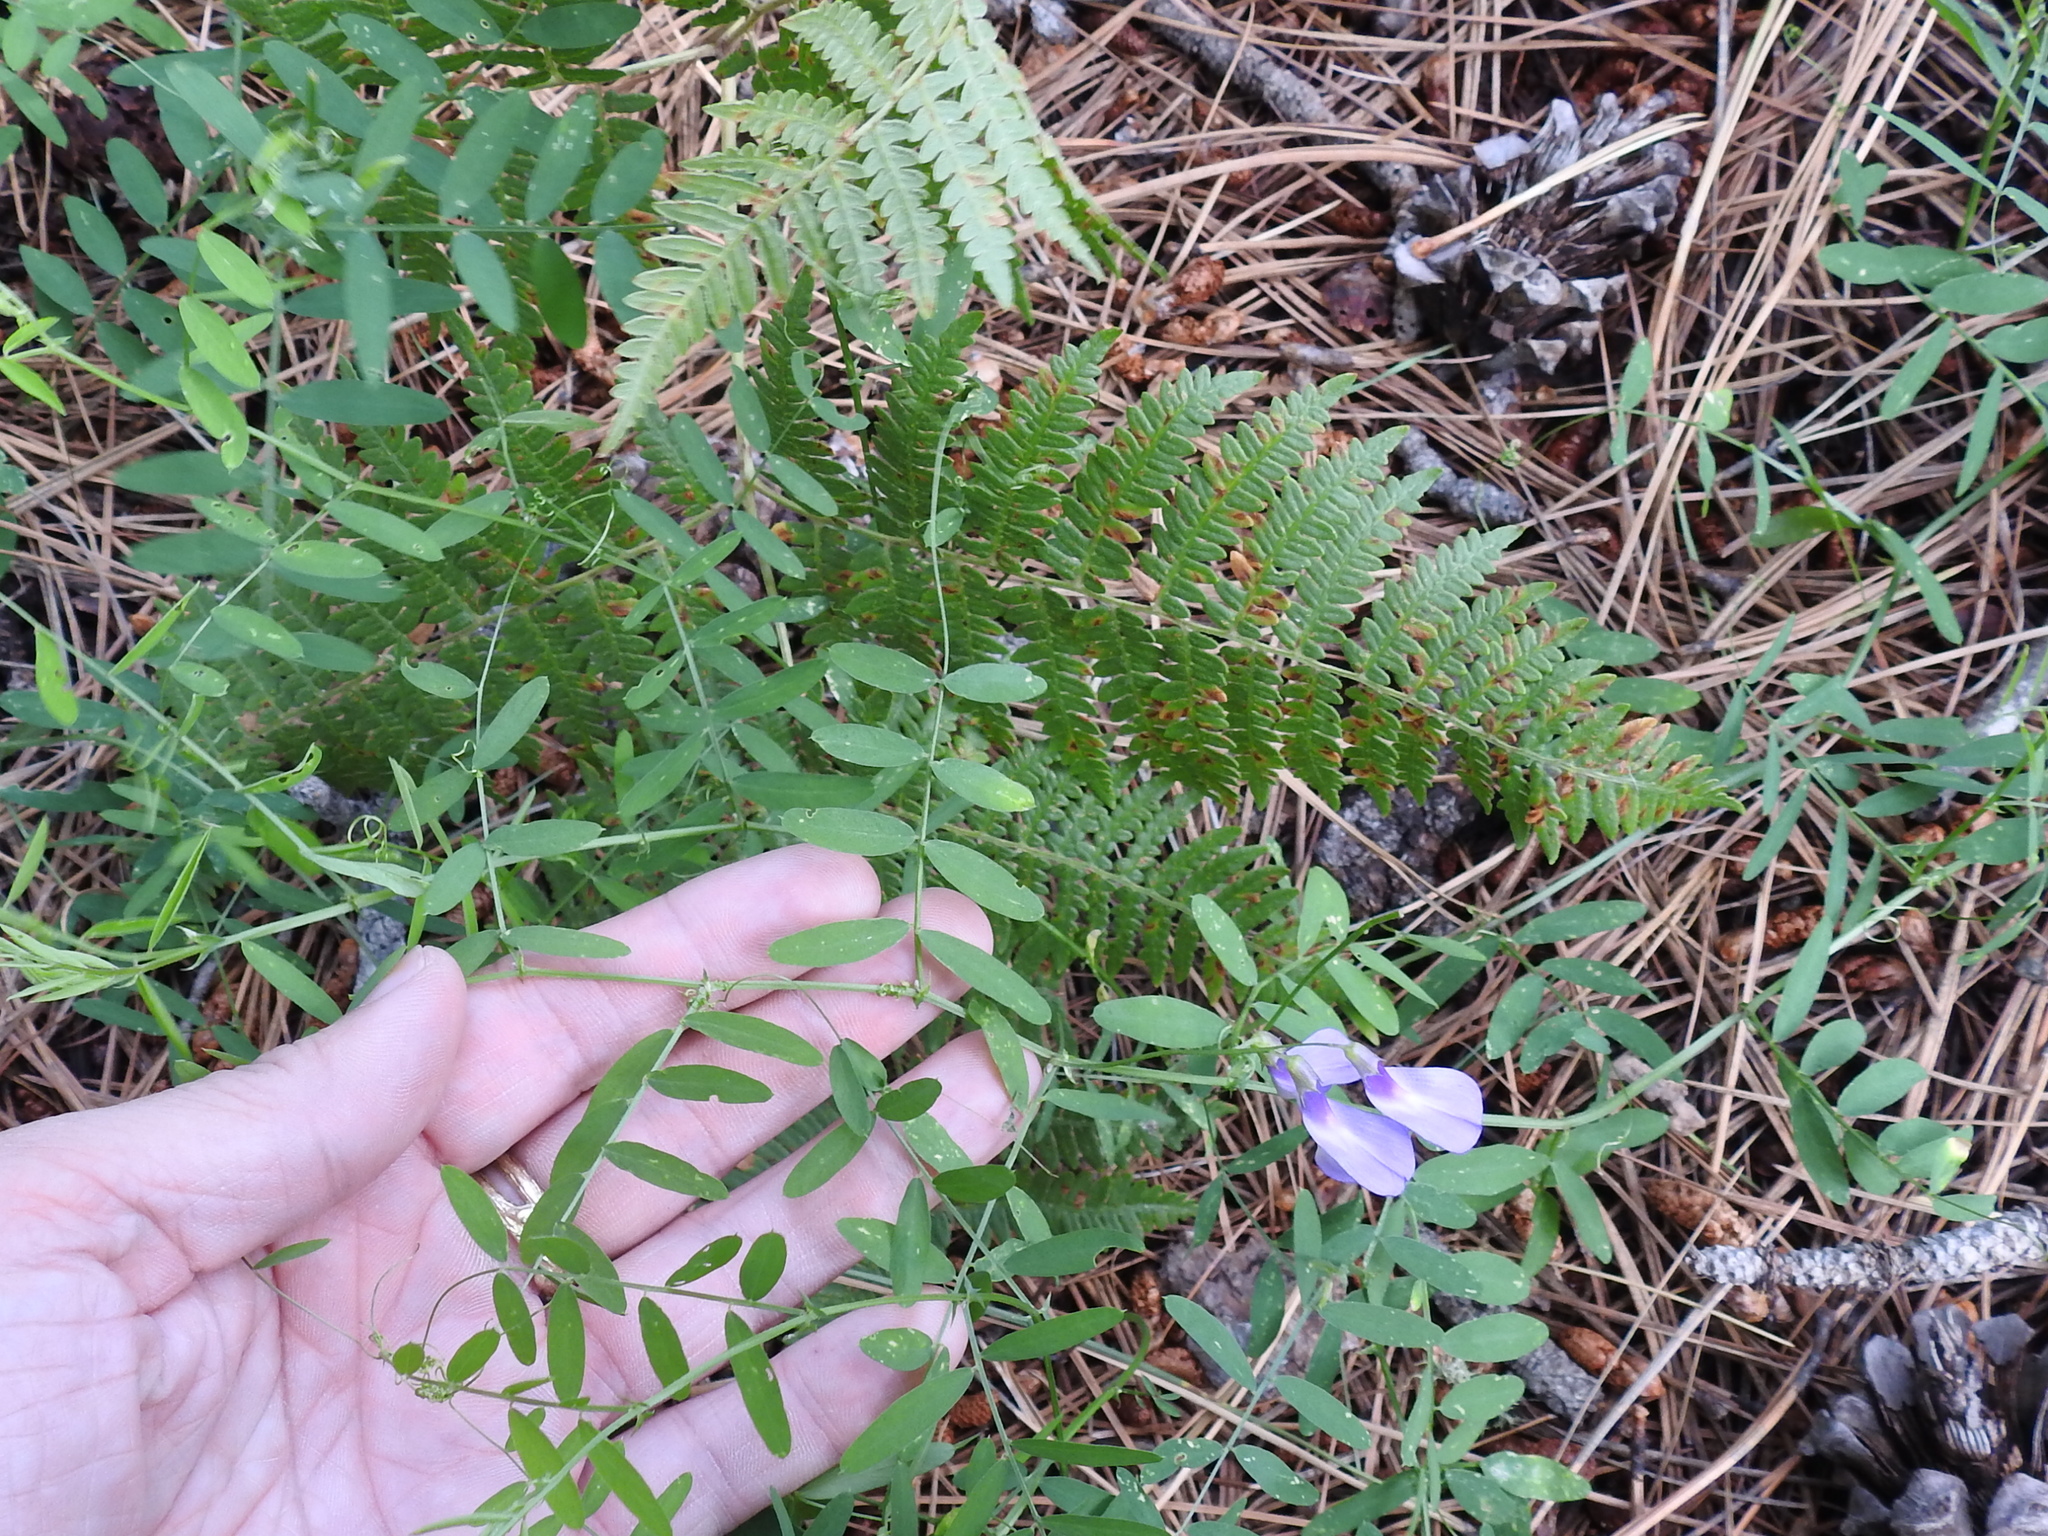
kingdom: Plantae
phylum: Tracheophyta
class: Magnoliopsida
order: Fabales
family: Fabaceae
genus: Vicia
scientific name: Vicia americana
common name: American vetch
